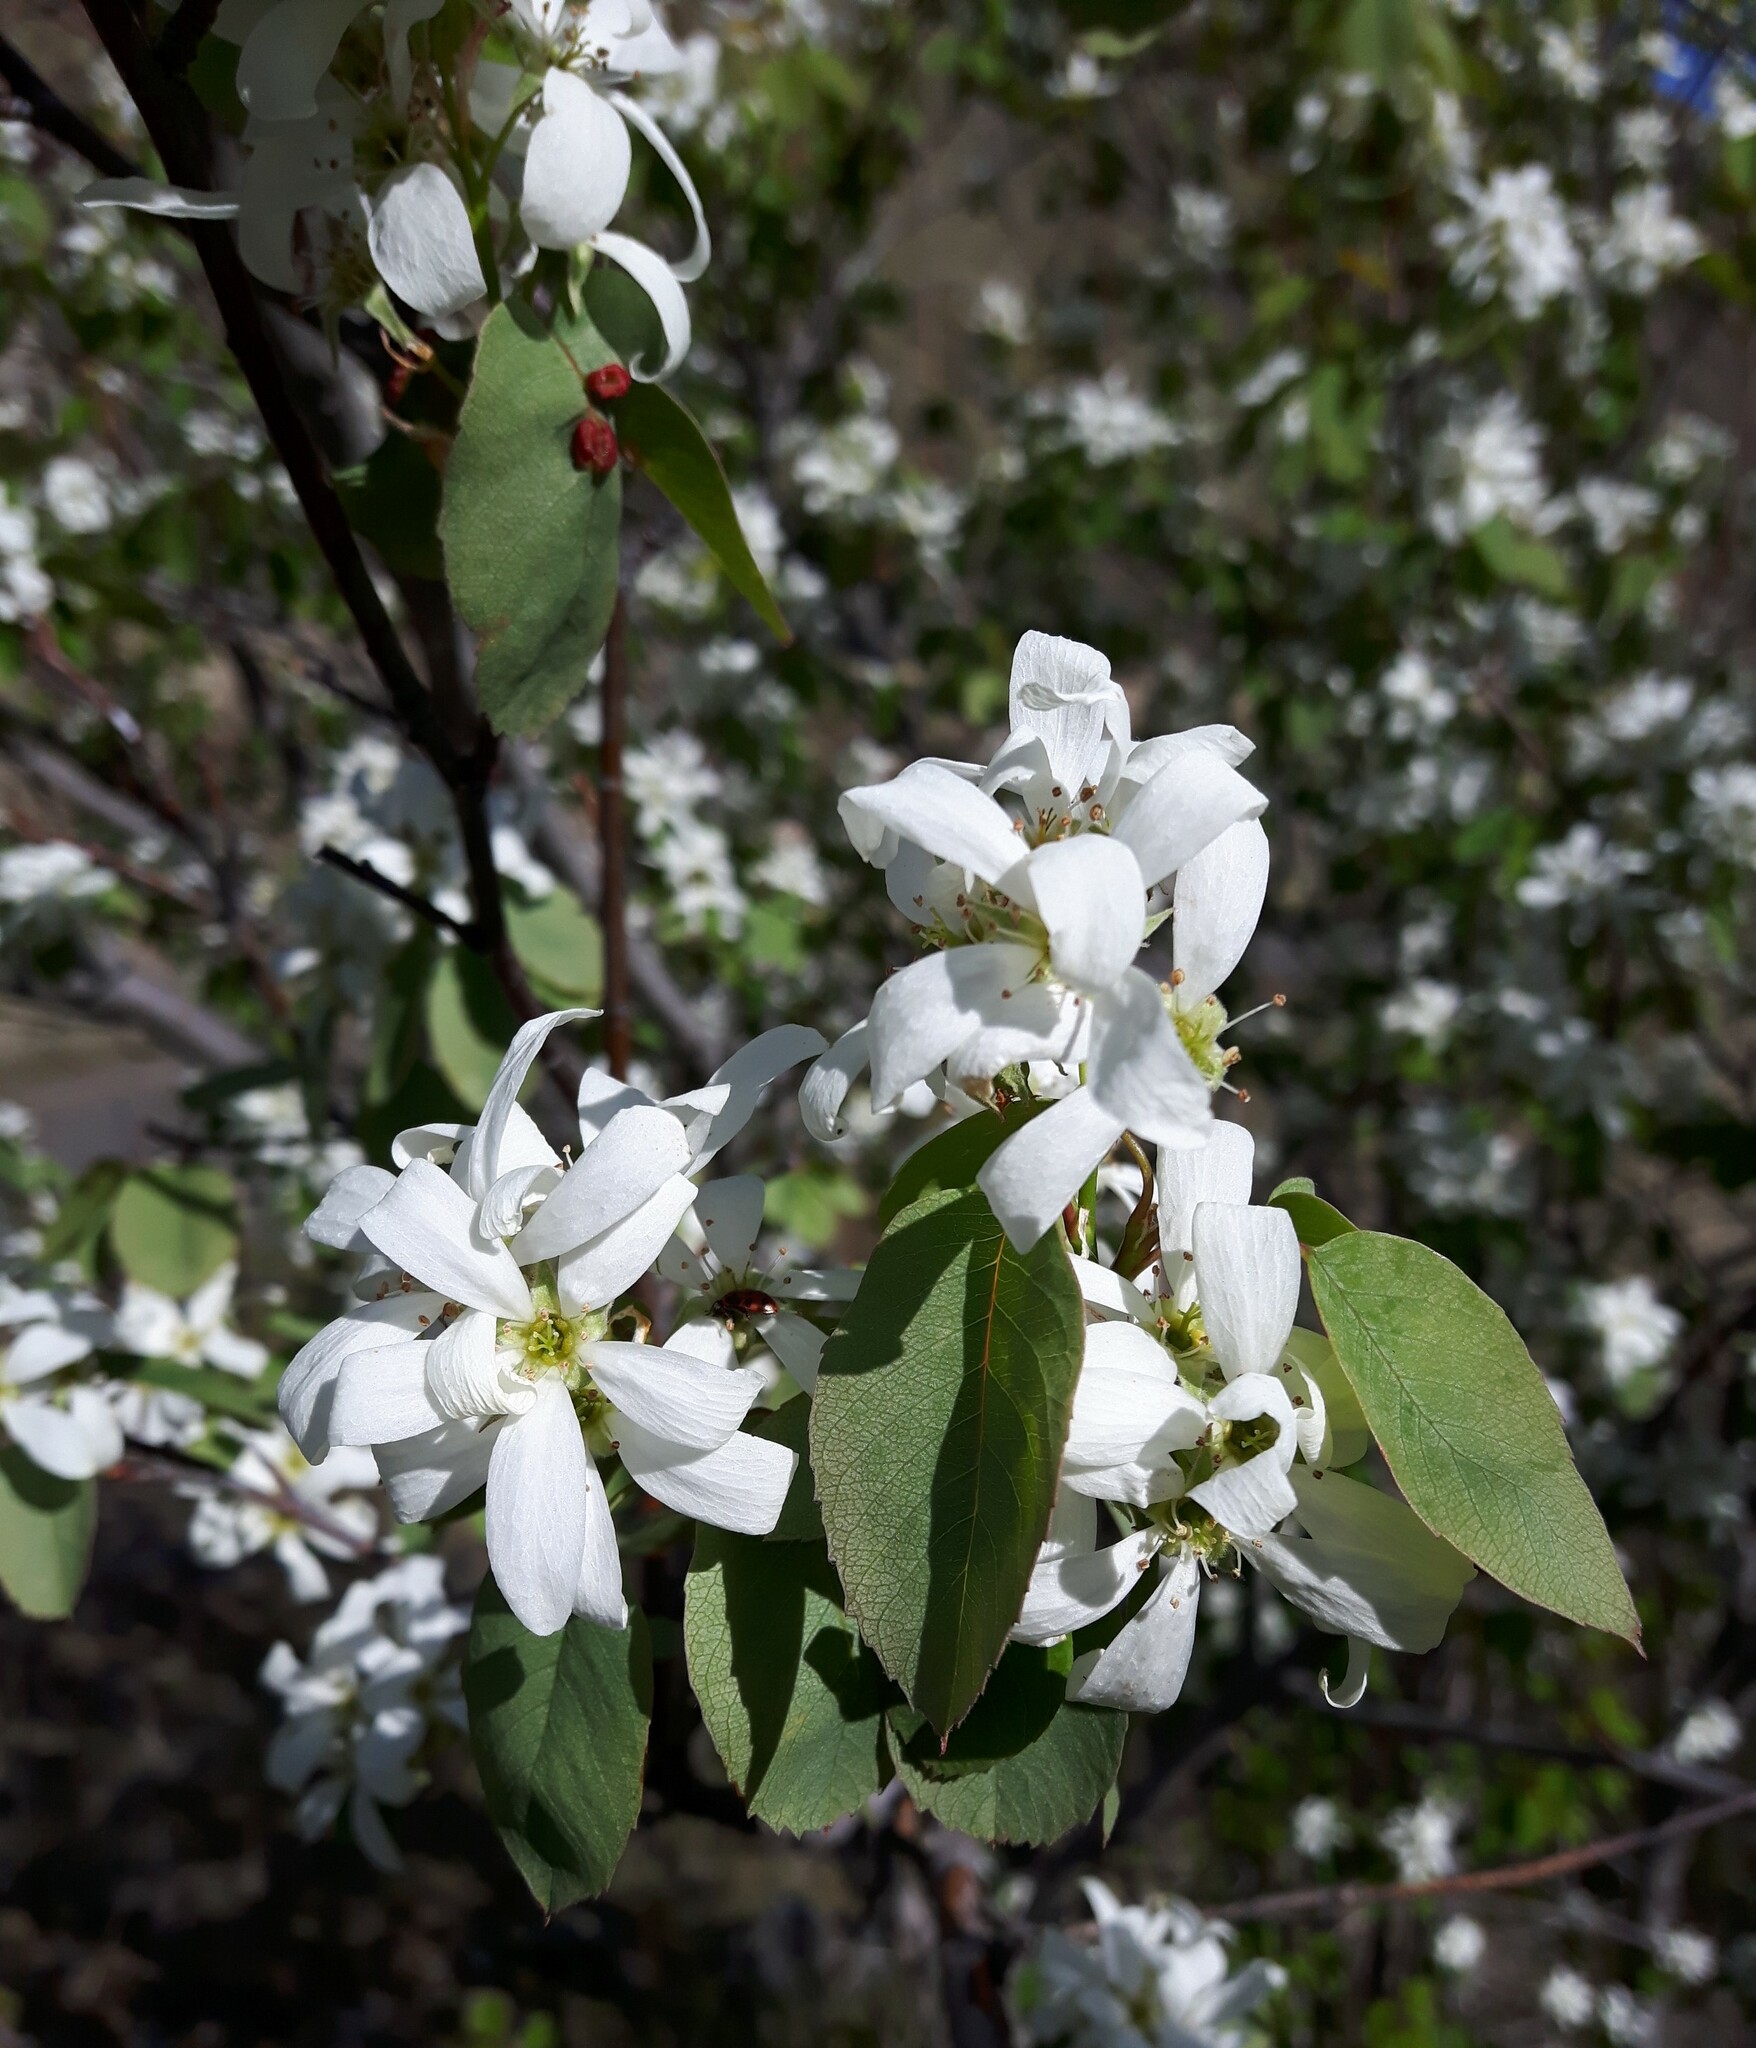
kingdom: Plantae
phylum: Tracheophyta
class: Magnoliopsida
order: Rosales
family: Rosaceae
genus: Amelanchier
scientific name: Amelanchier alnifolia
